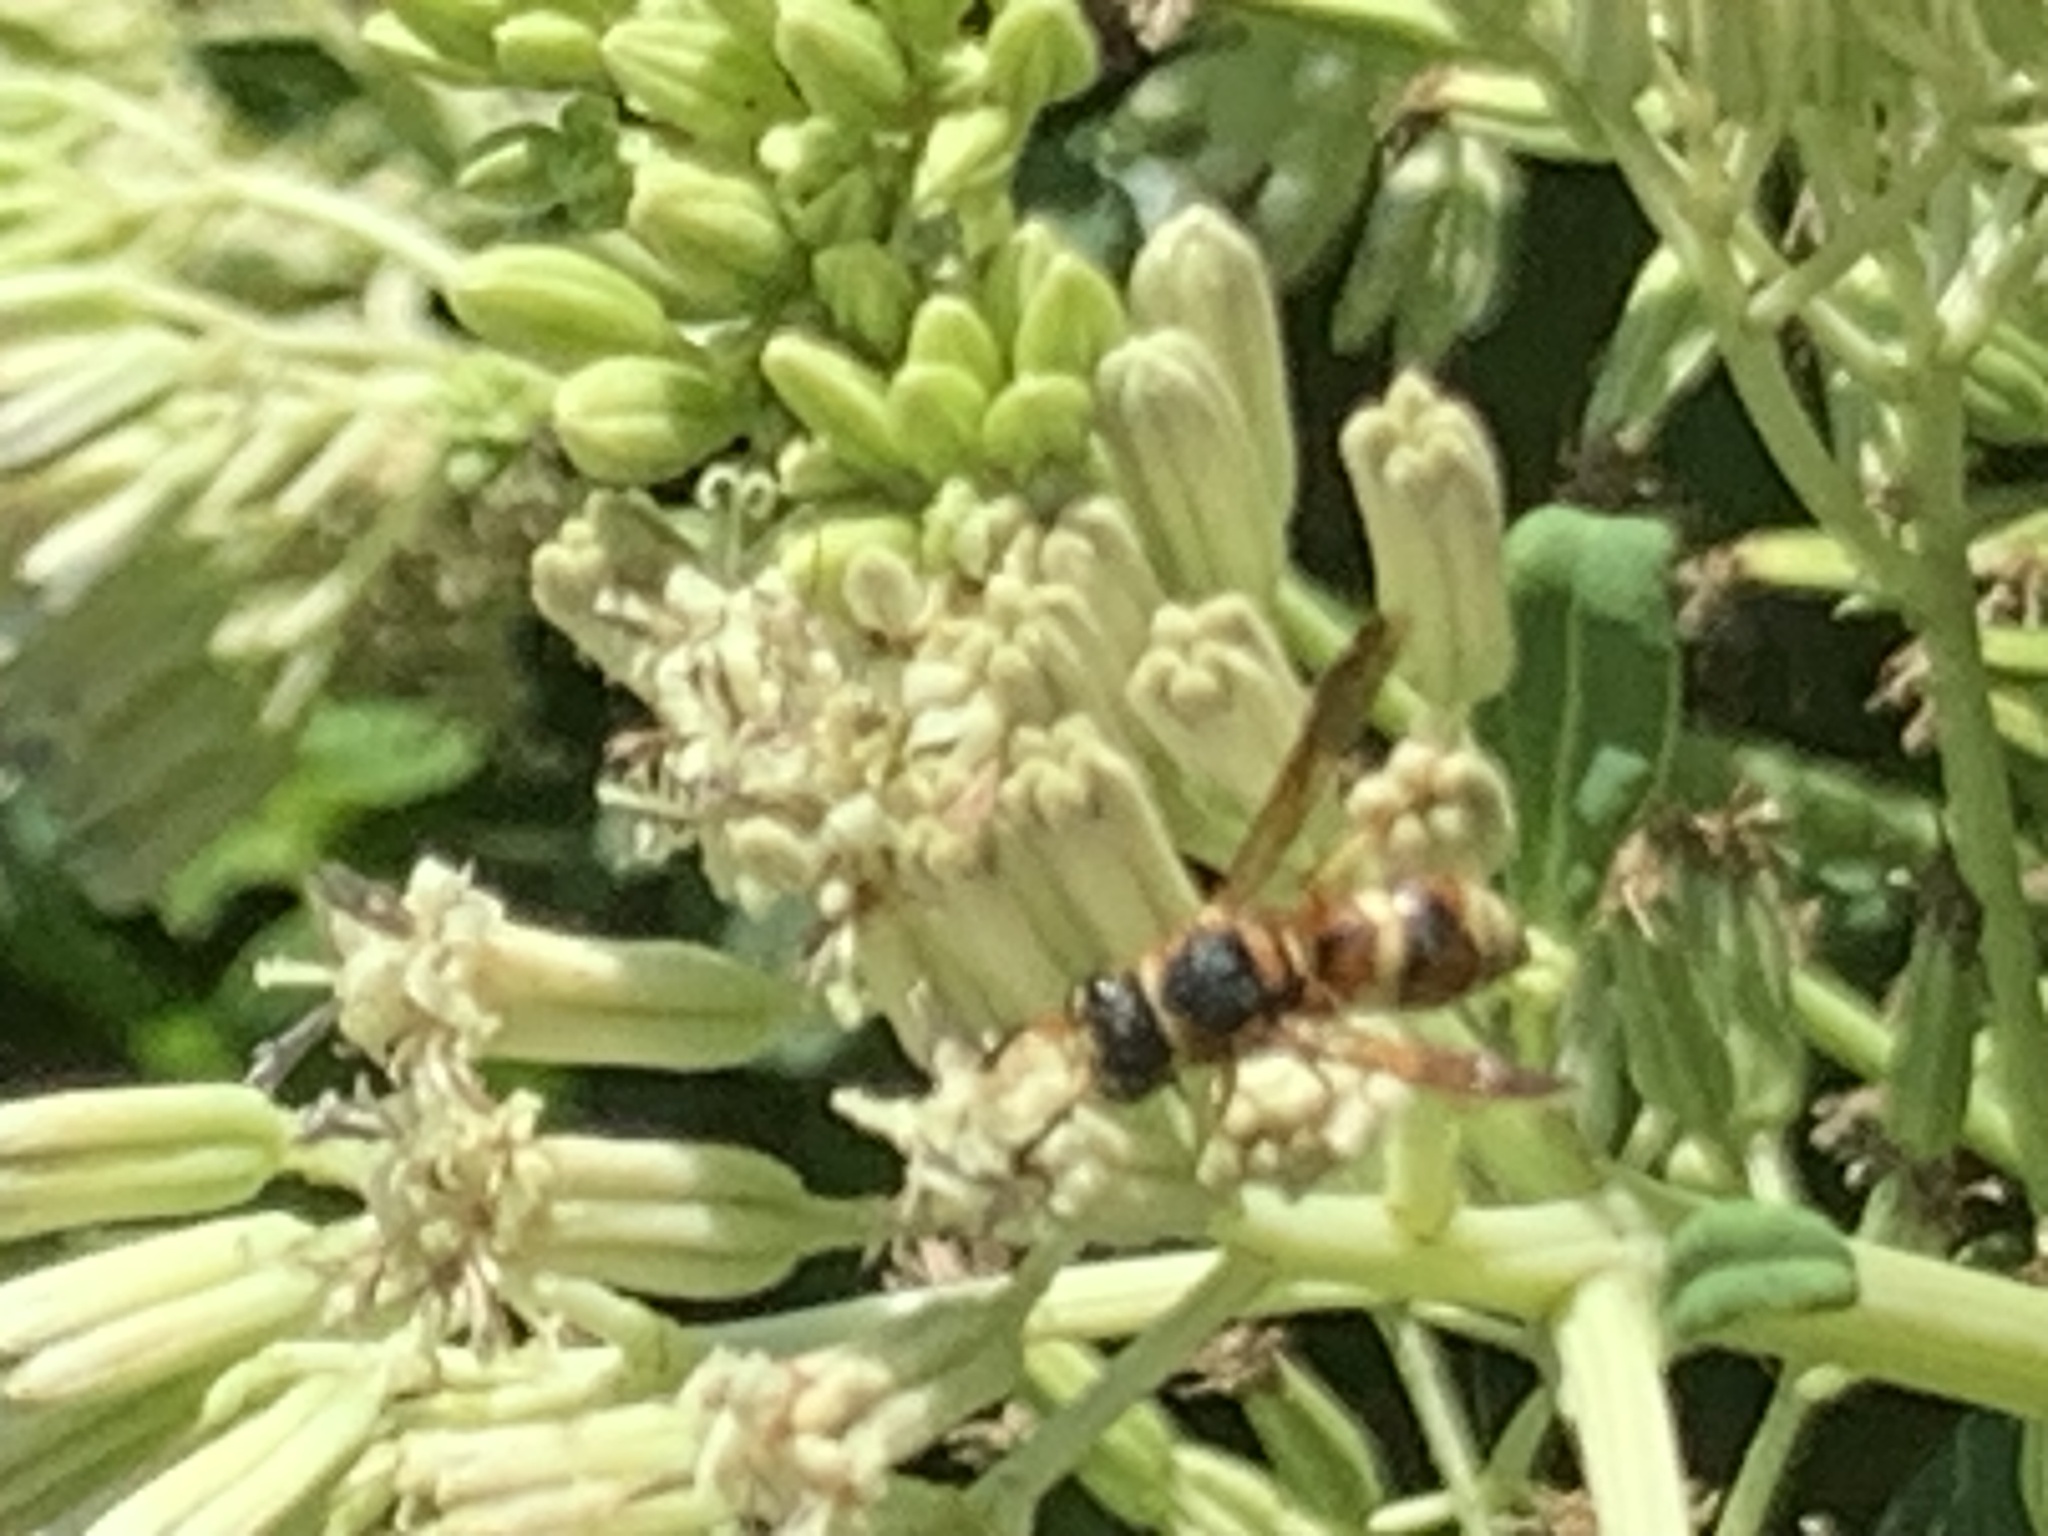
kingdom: Animalia
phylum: Arthropoda
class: Insecta
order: Hymenoptera
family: Eumenidae
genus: Euodynerus
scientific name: Euodynerus hidalgo
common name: Wasp
